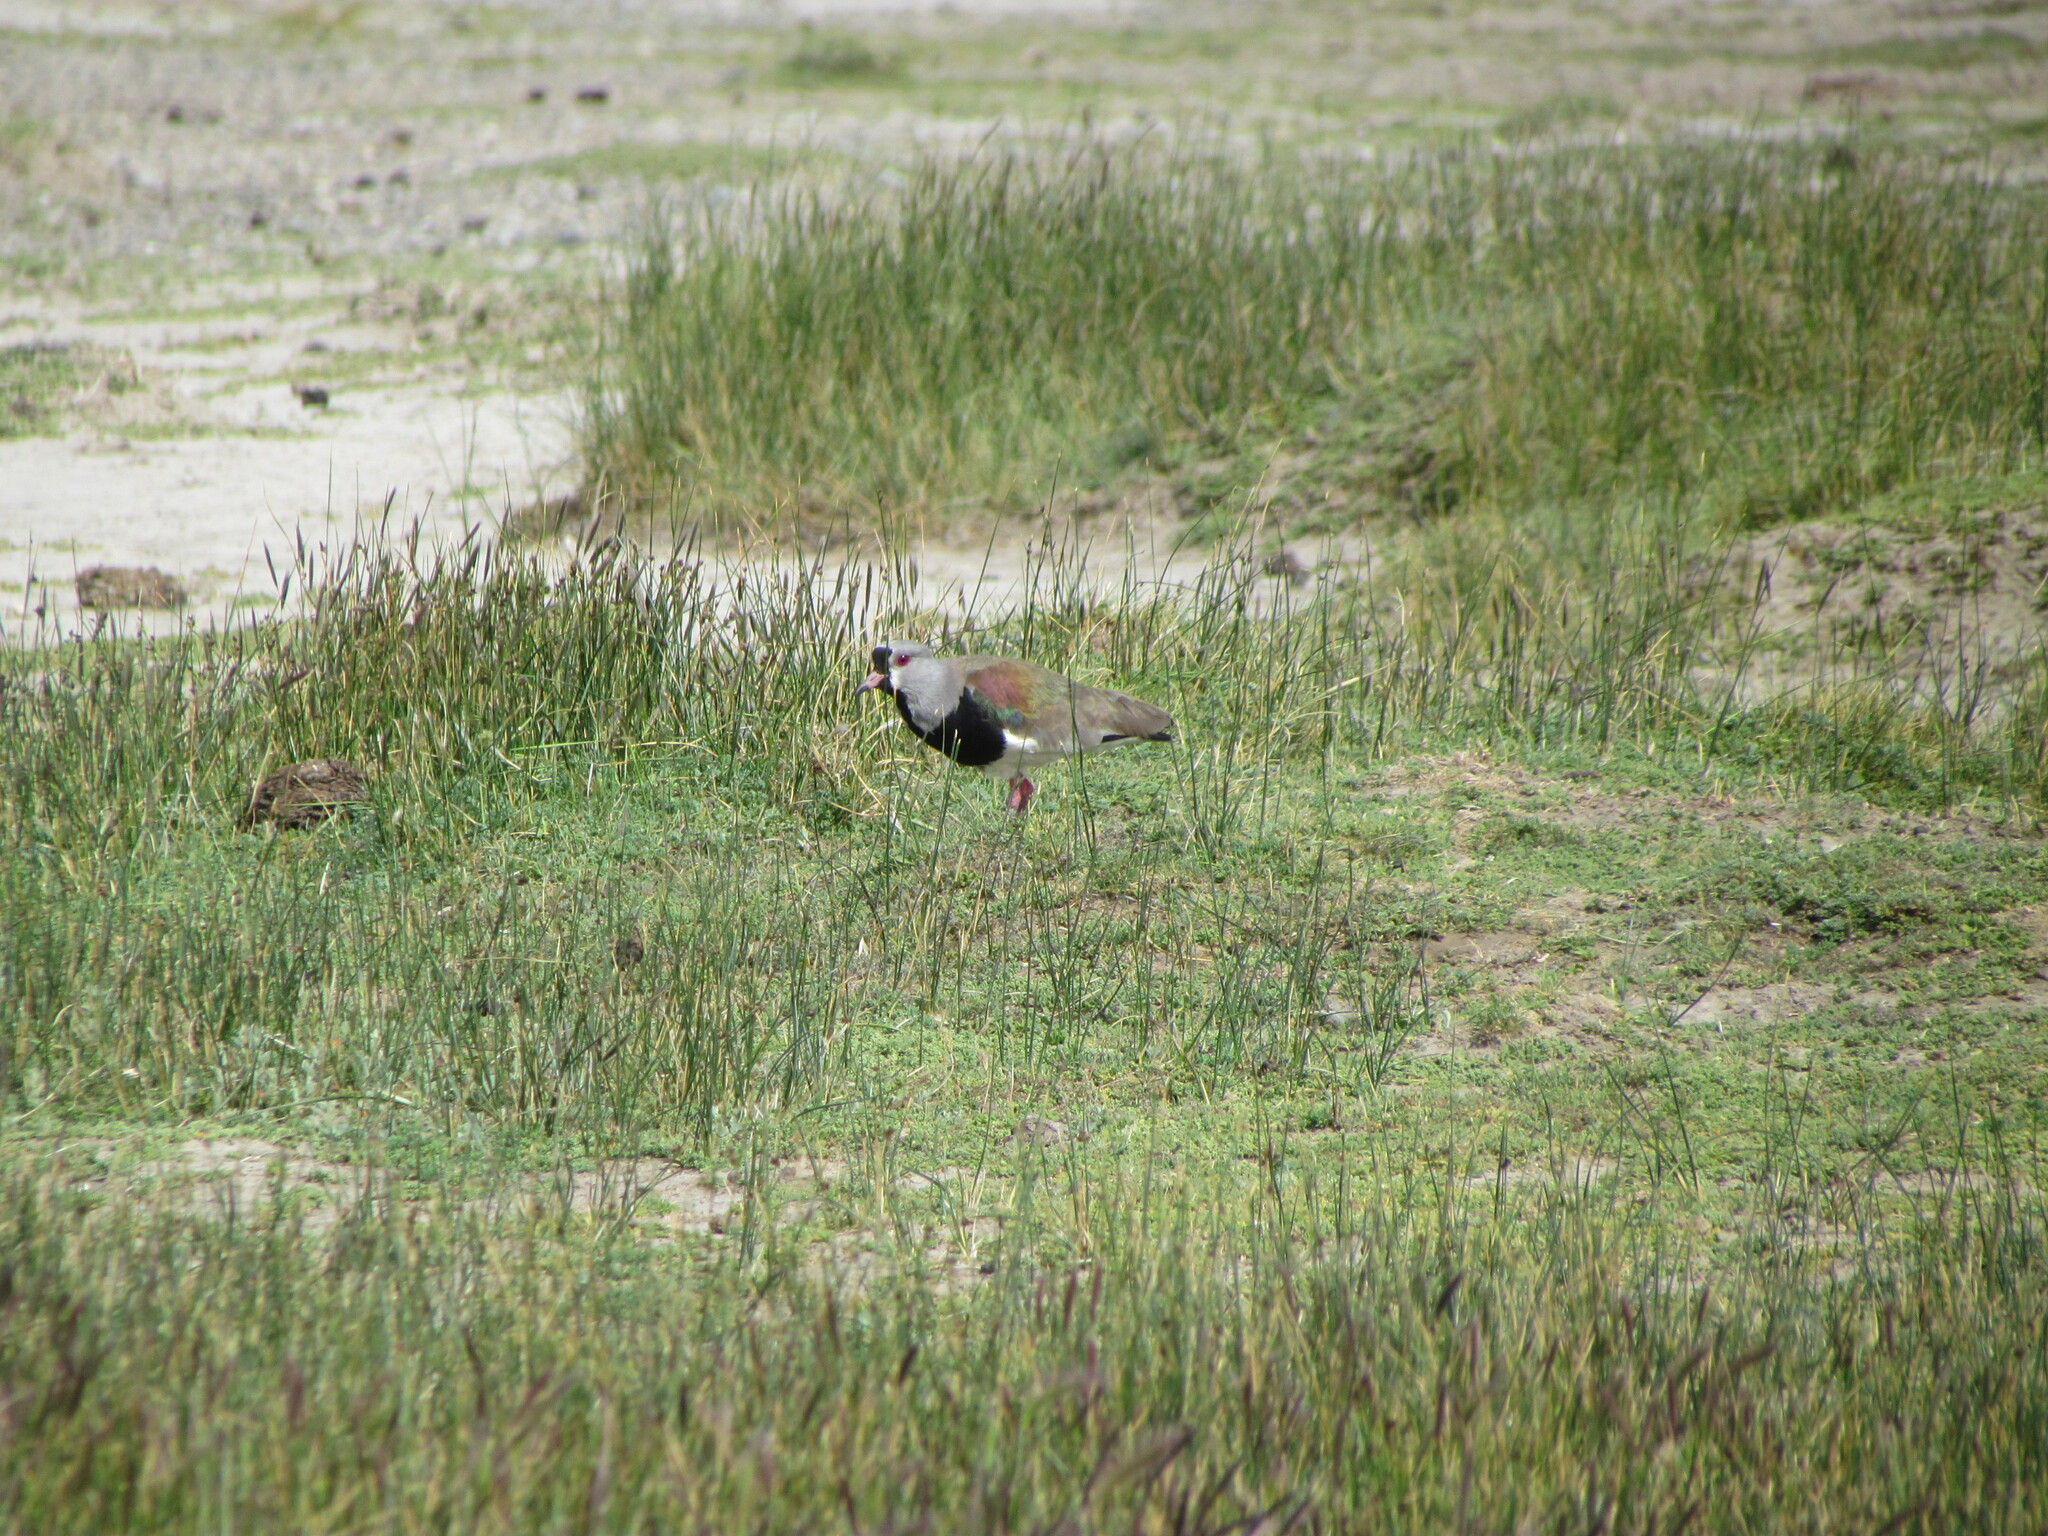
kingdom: Animalia
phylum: Chordata
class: Aves
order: Charadriiformes
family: Charadriidae
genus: Vanellus
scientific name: Vanellus chilensis
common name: Southern lapwing
